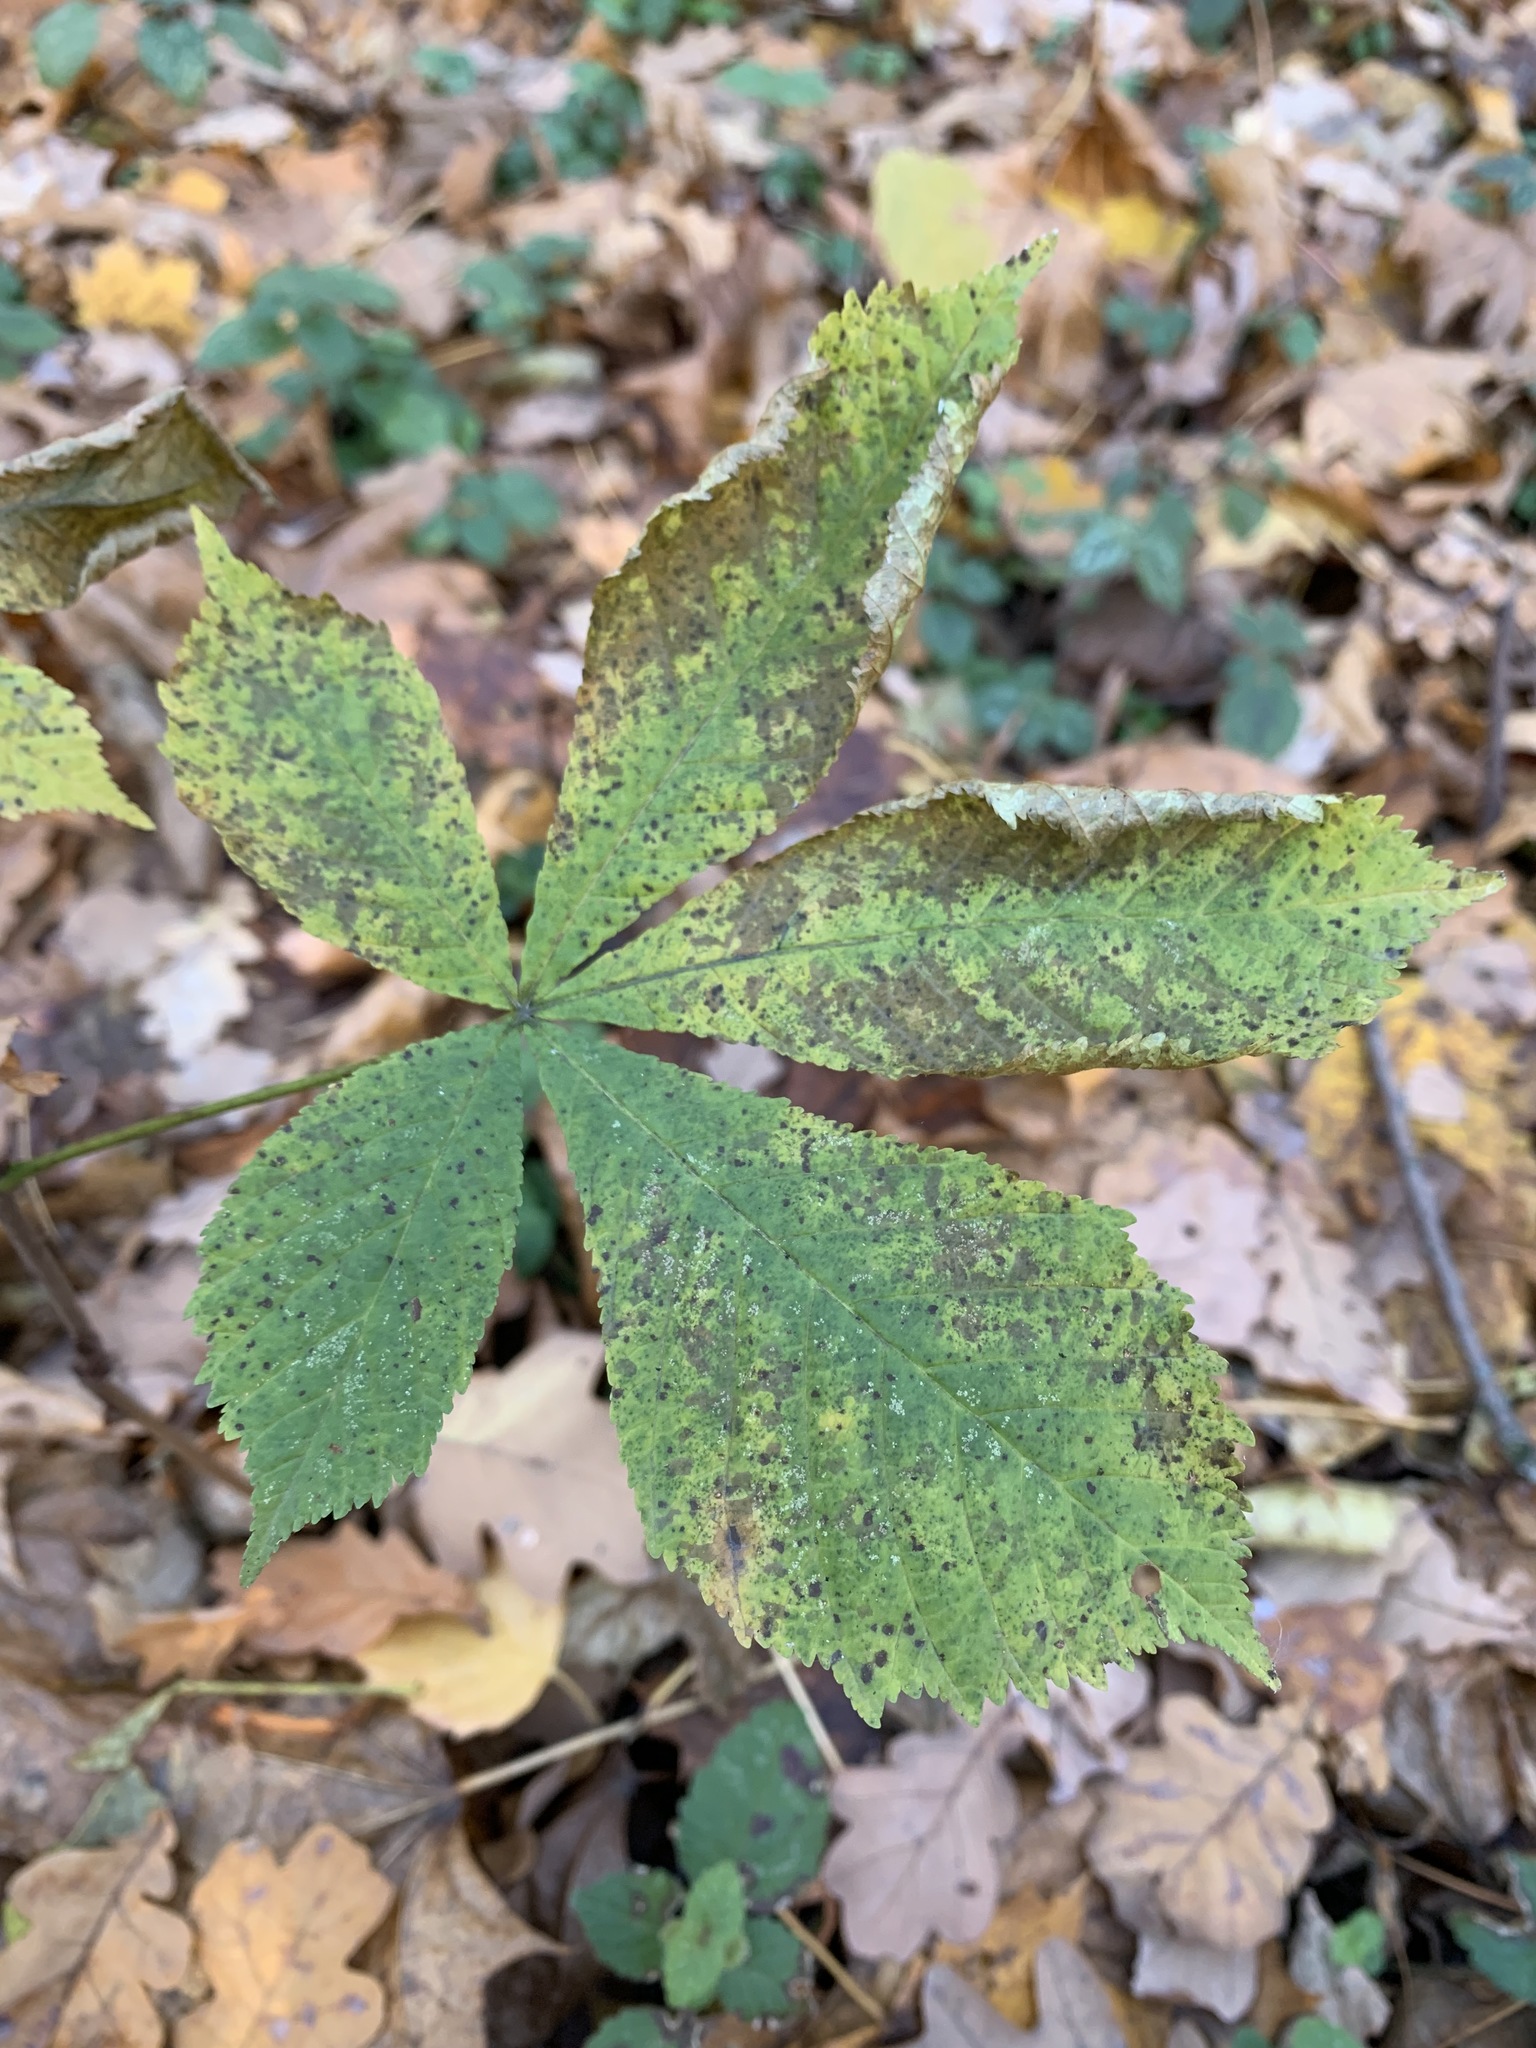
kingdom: Plantae
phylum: Tracheophyta
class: Magnoliopsida
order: Sapindales
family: Sapindaceae
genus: Aesculus
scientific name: Aesculus hippocastanum
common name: Horse-chestnut
